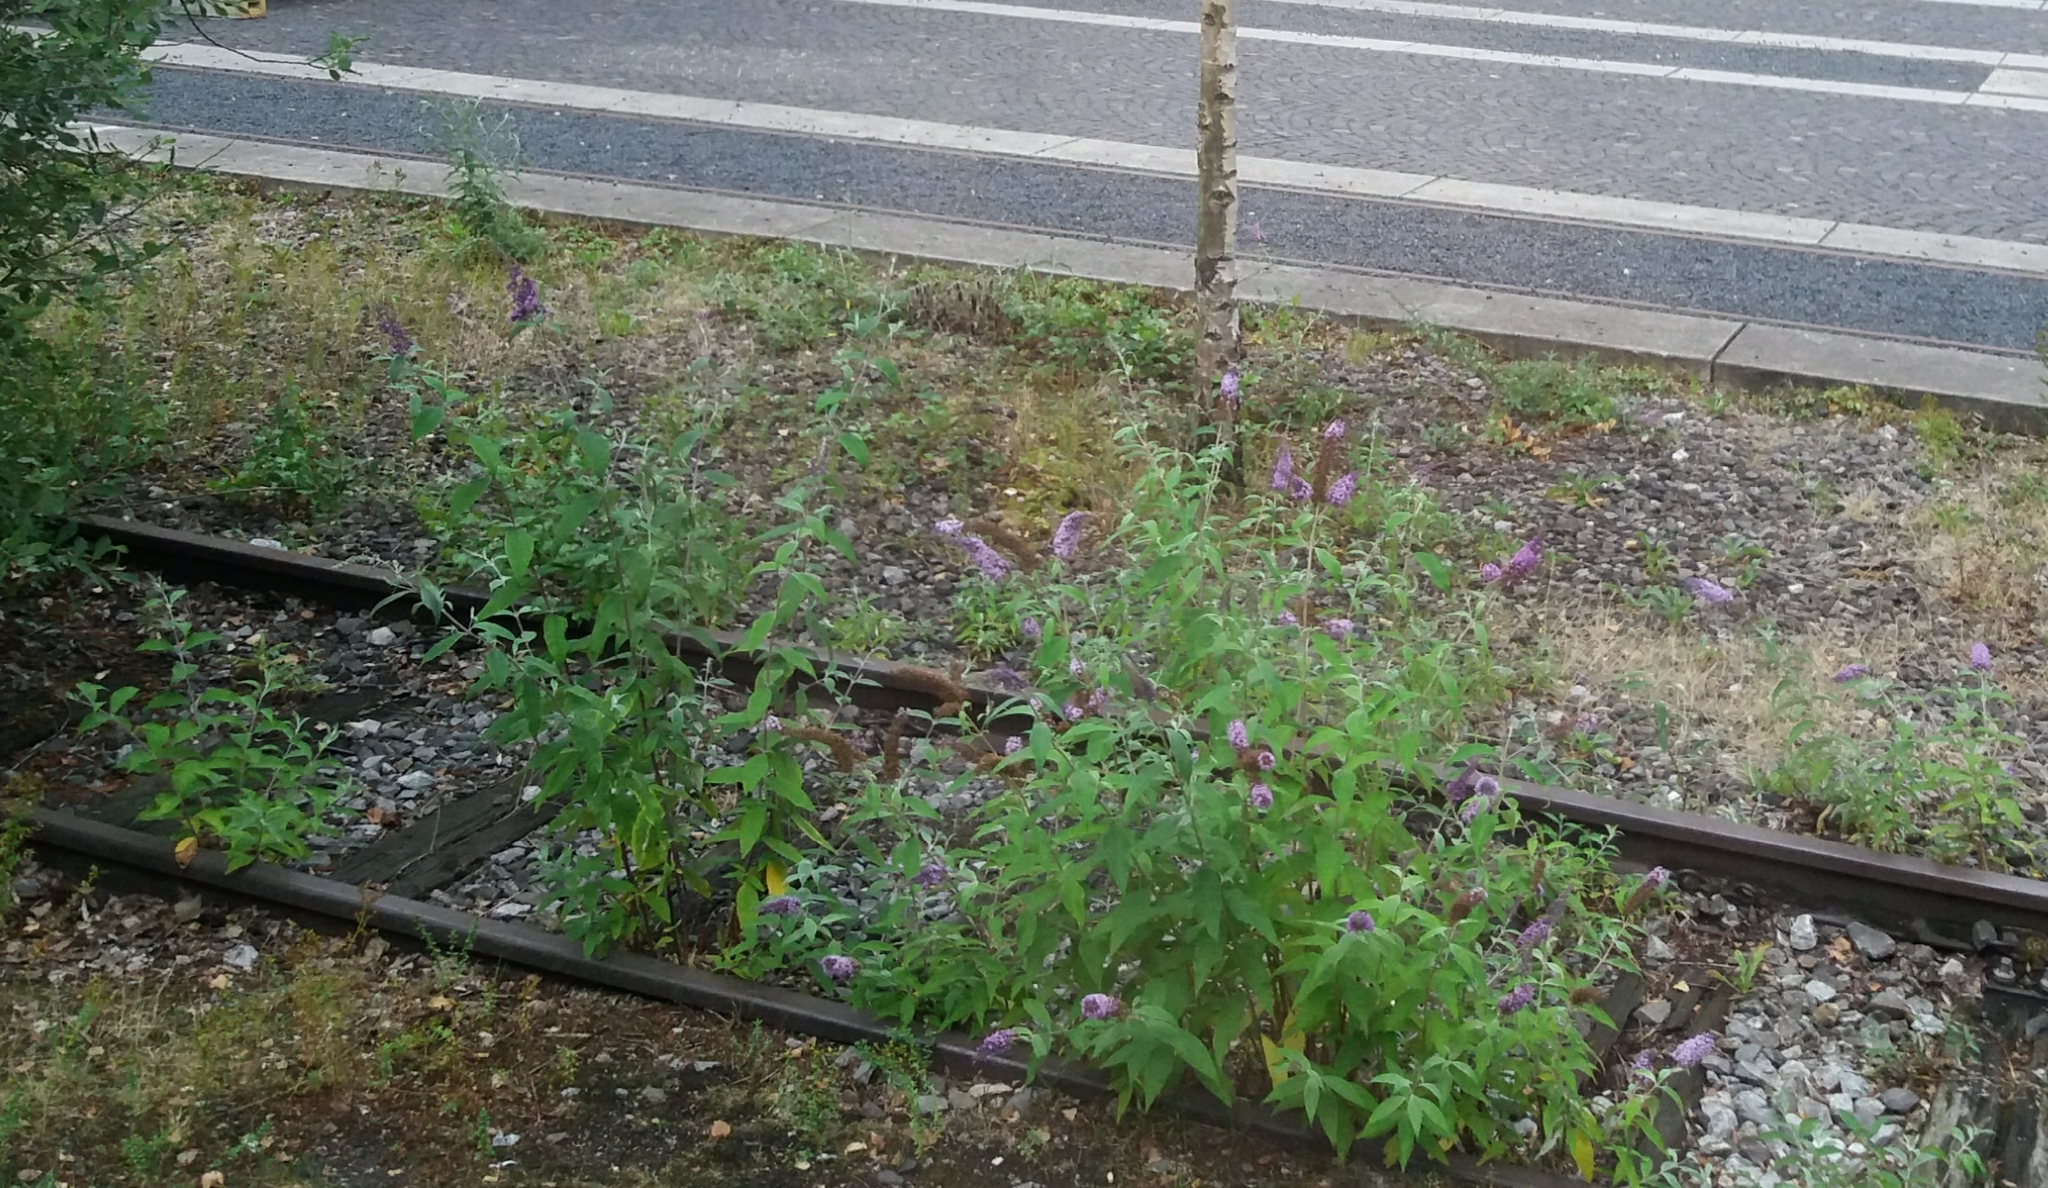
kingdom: Plantae
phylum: Tracheophyta
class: Magnoliopsida
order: Lamiales
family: Scrophulariaceae
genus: Buddleja
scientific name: Buddleja davidii
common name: Butterfly-bush
